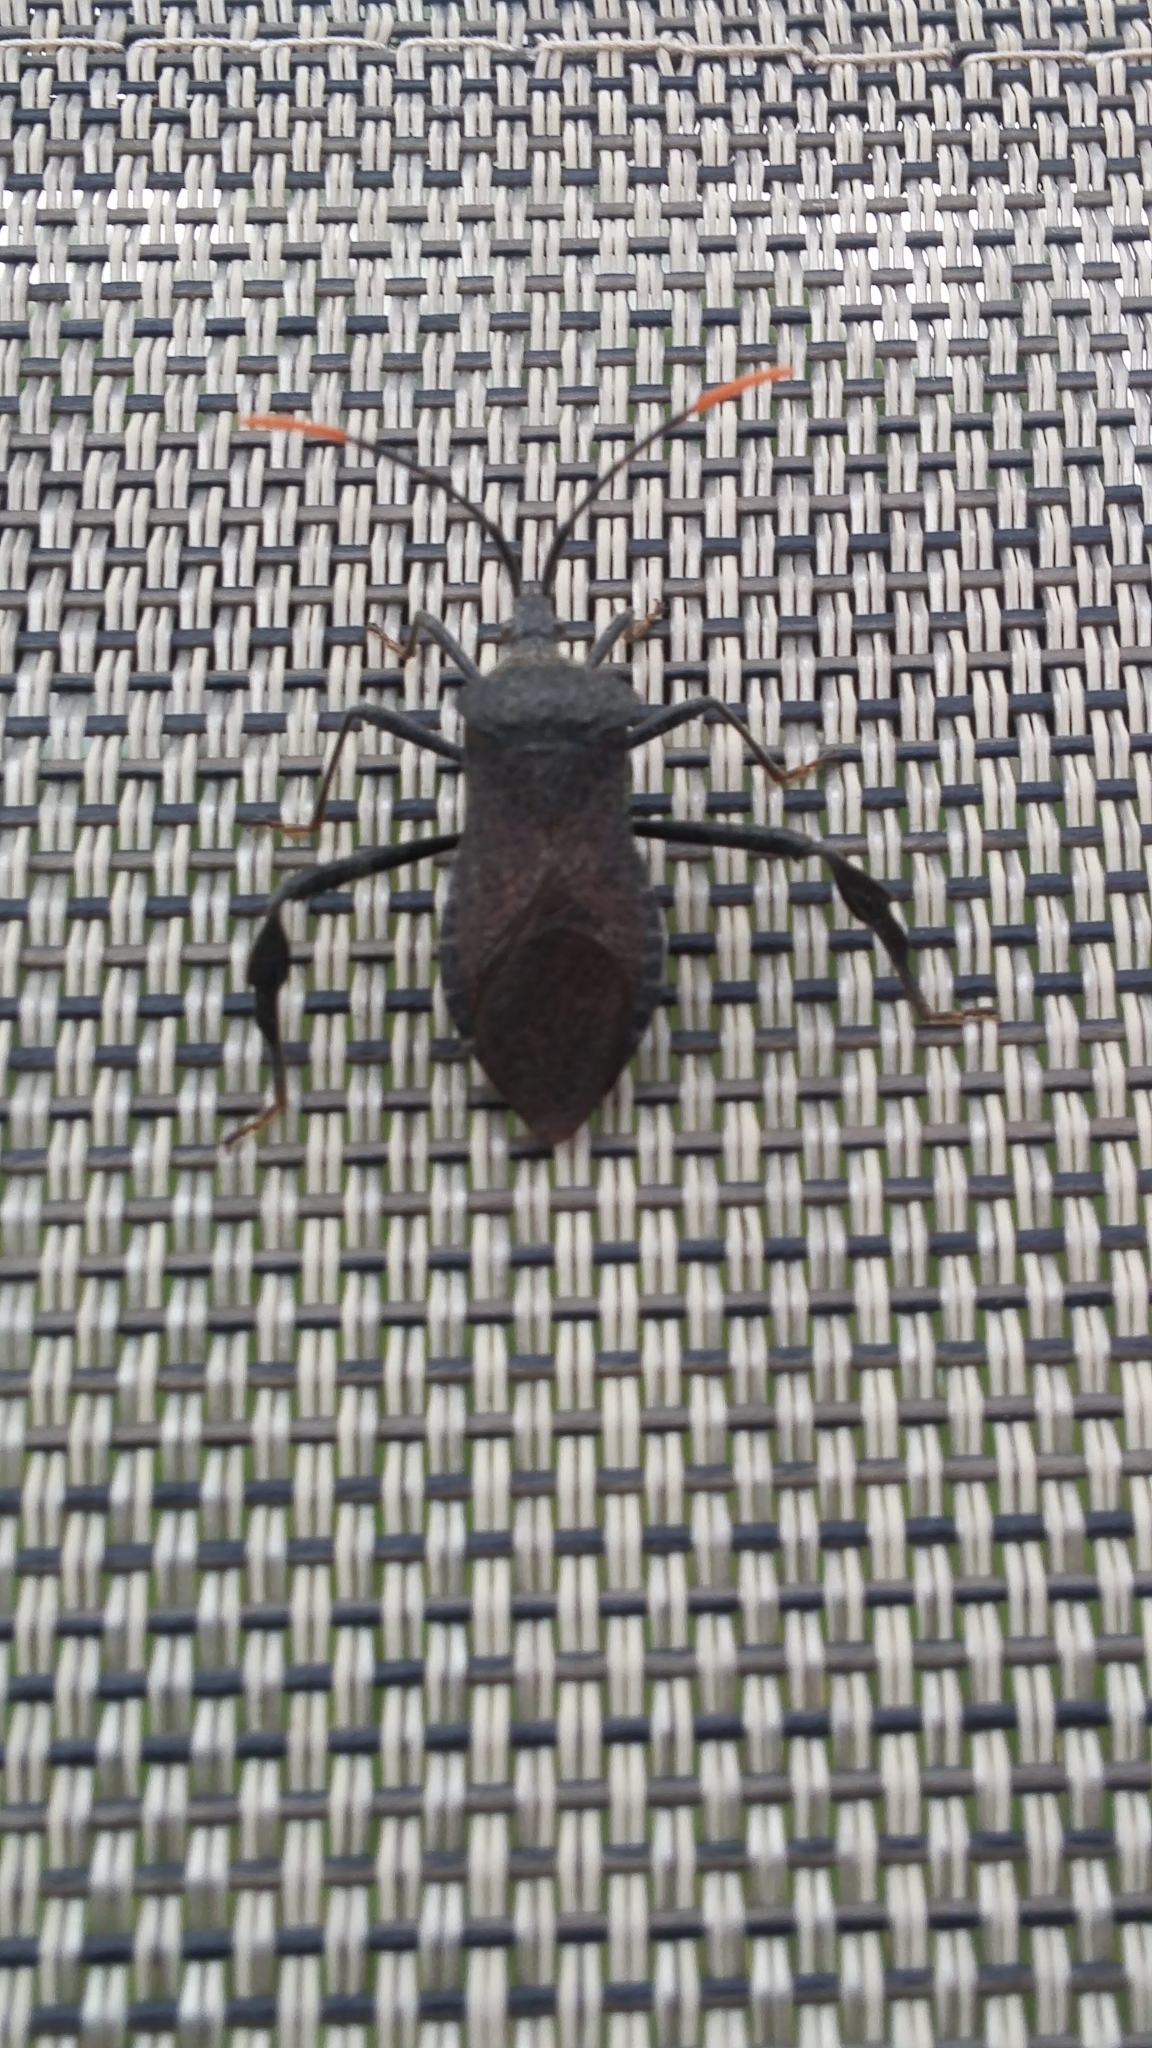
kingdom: Animalia
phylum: Arthropoda
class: Insecta
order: Hemiptera
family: Coreidae
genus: Acanthocephala
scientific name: Acanthocephala terminalis
